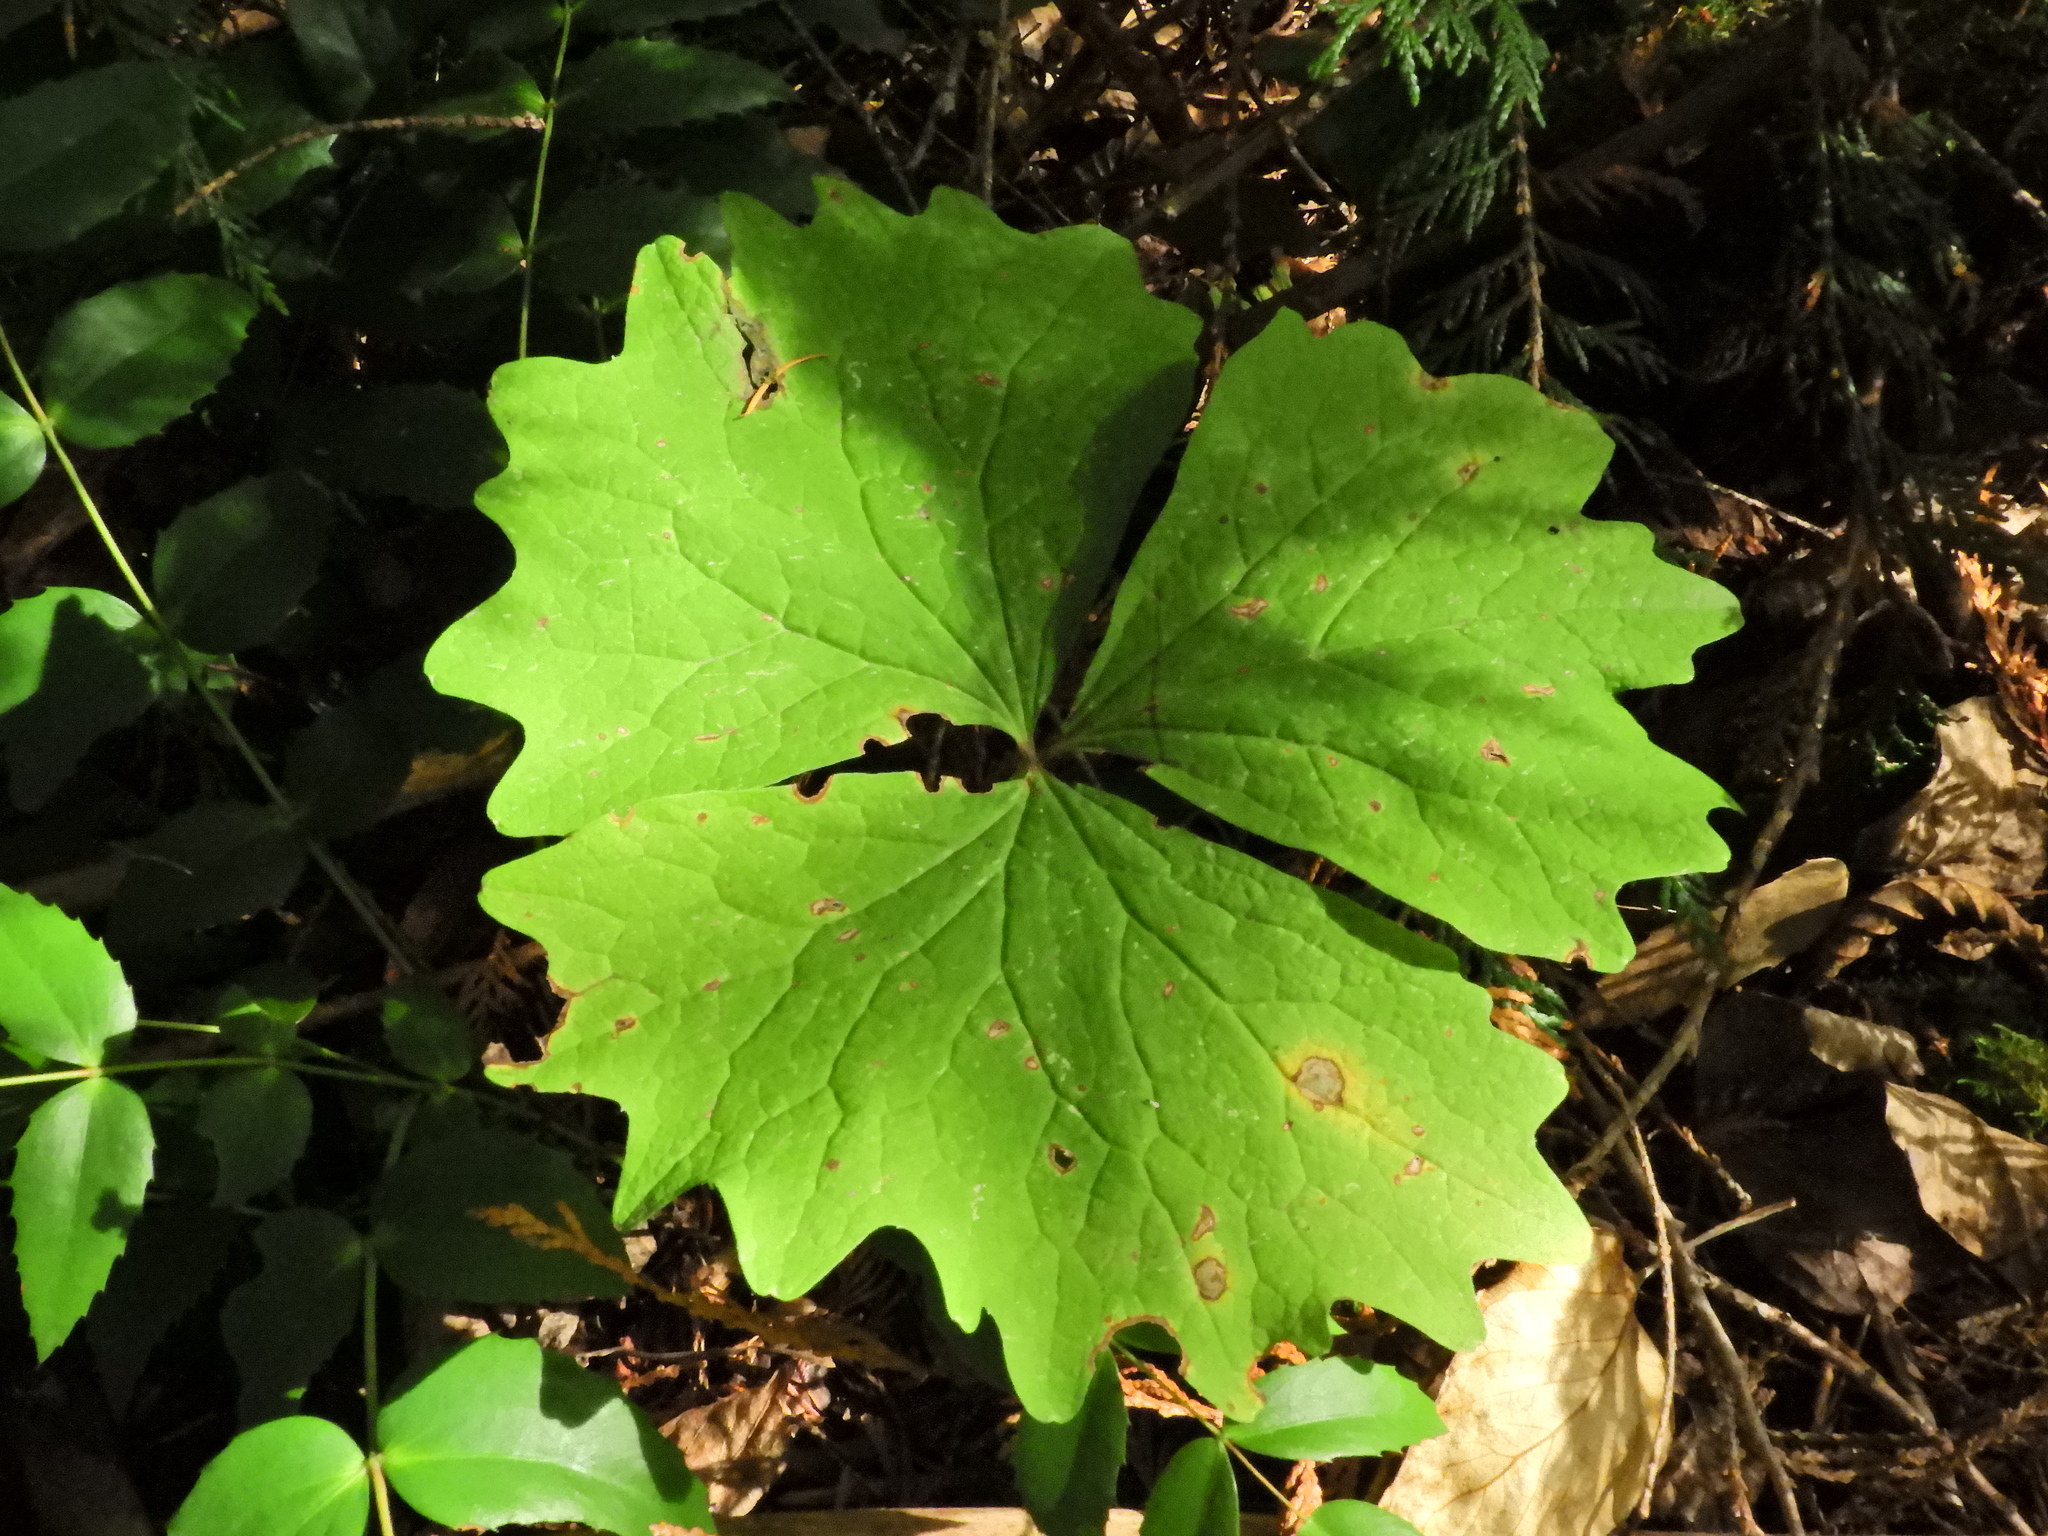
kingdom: Plantae
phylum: Tracheophyta
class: Magnoliopsida
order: Ranunculales
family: Berberidaceae
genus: Achlys
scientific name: Achlys triphylla
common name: Vanilla-leaf
